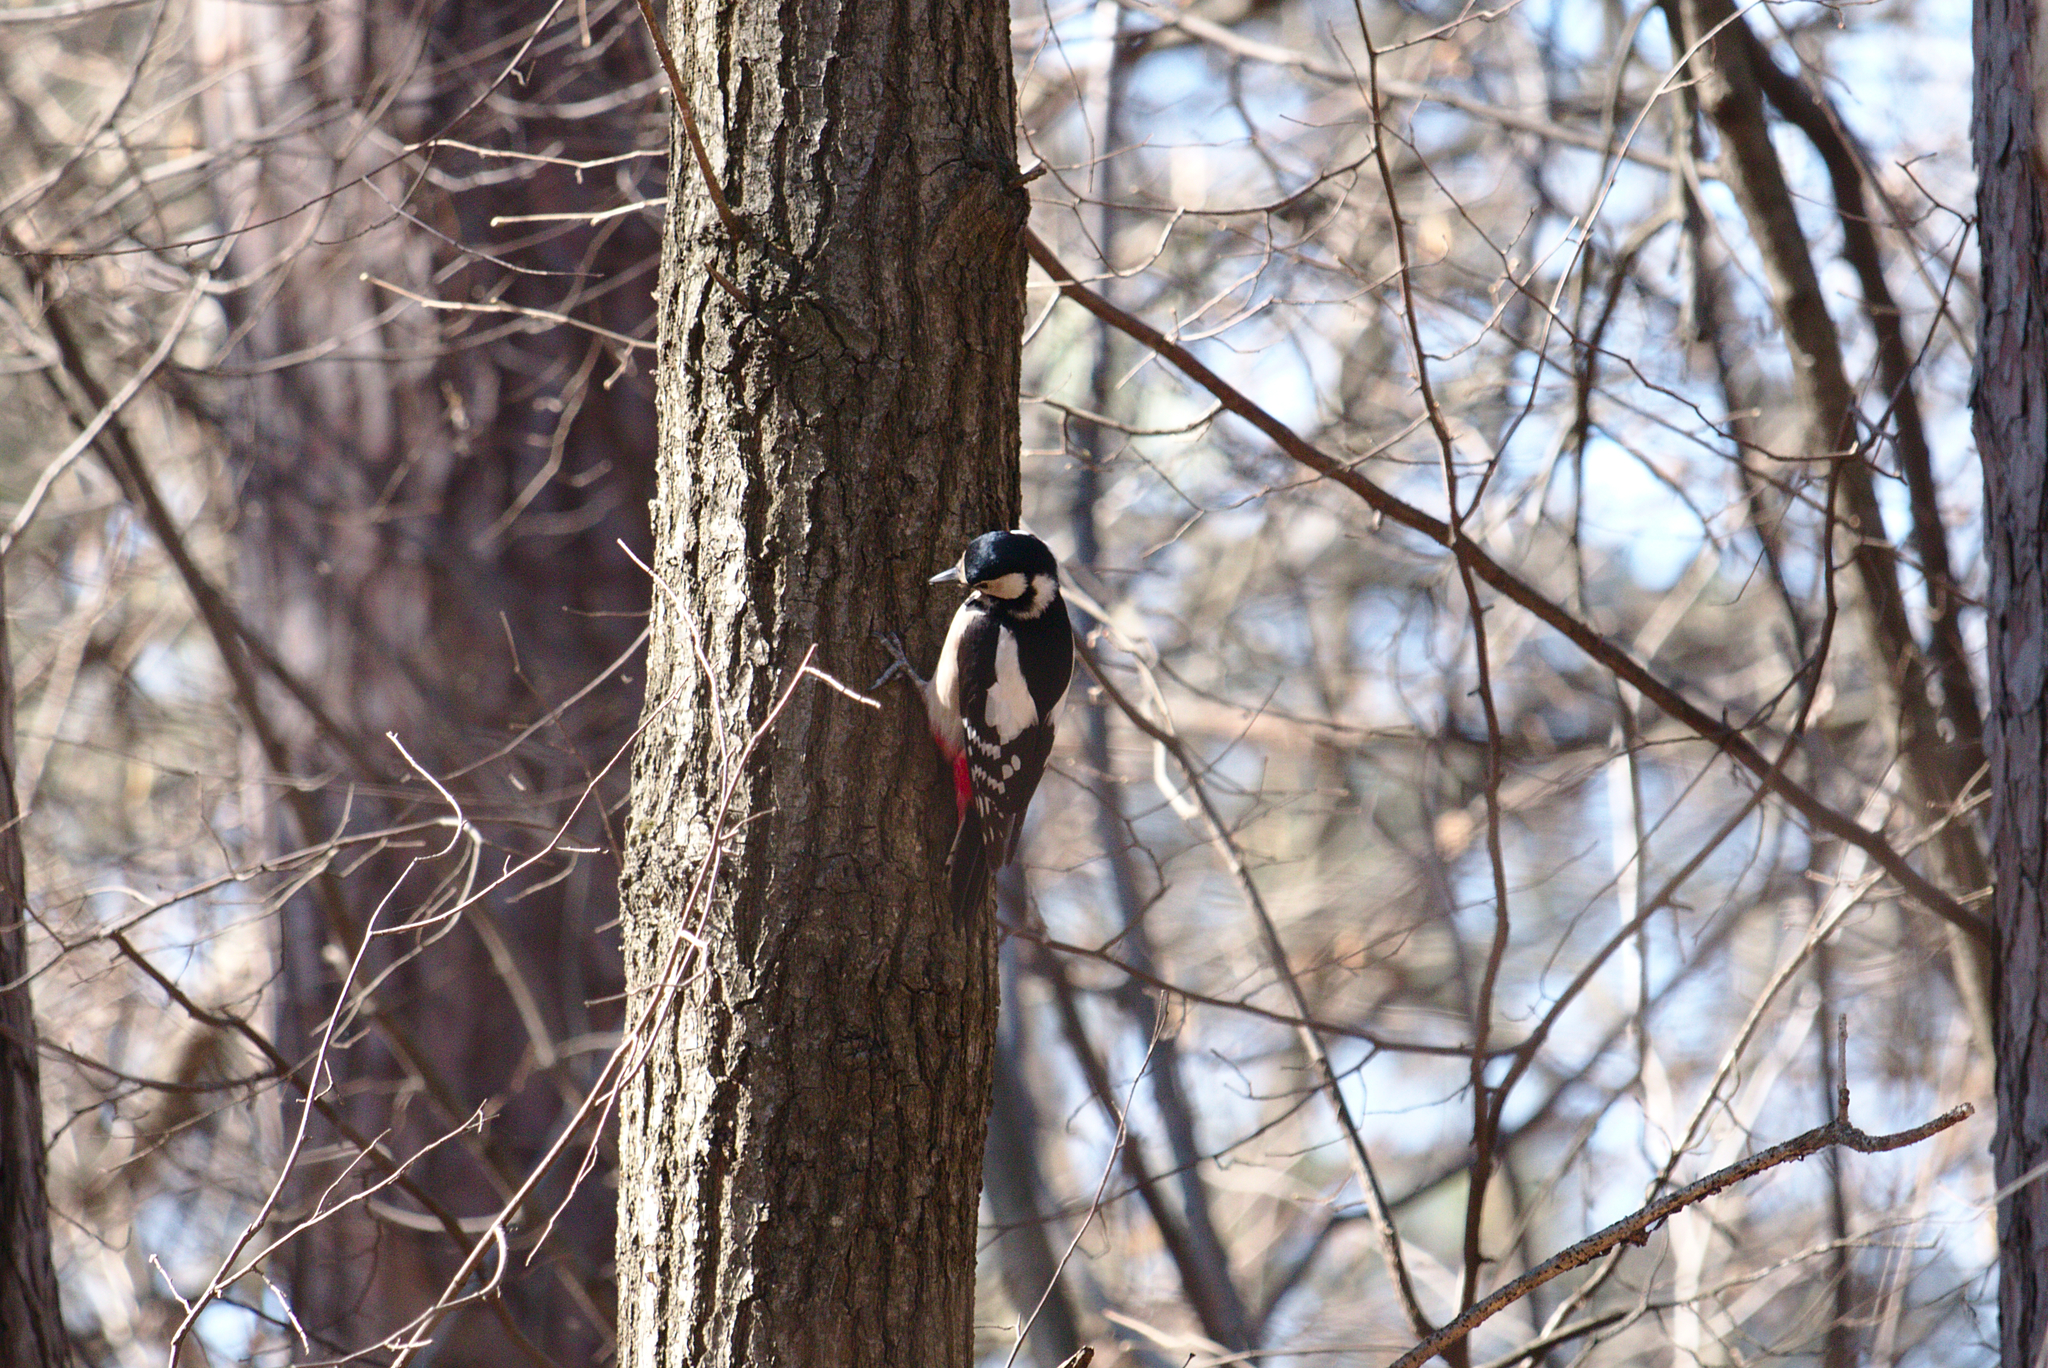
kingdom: Animalia
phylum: Chordata
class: Aves
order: Piciformes
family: Picidae
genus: Dendrocopos
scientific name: Dendrocopos major
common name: Great spotted woodpecker
